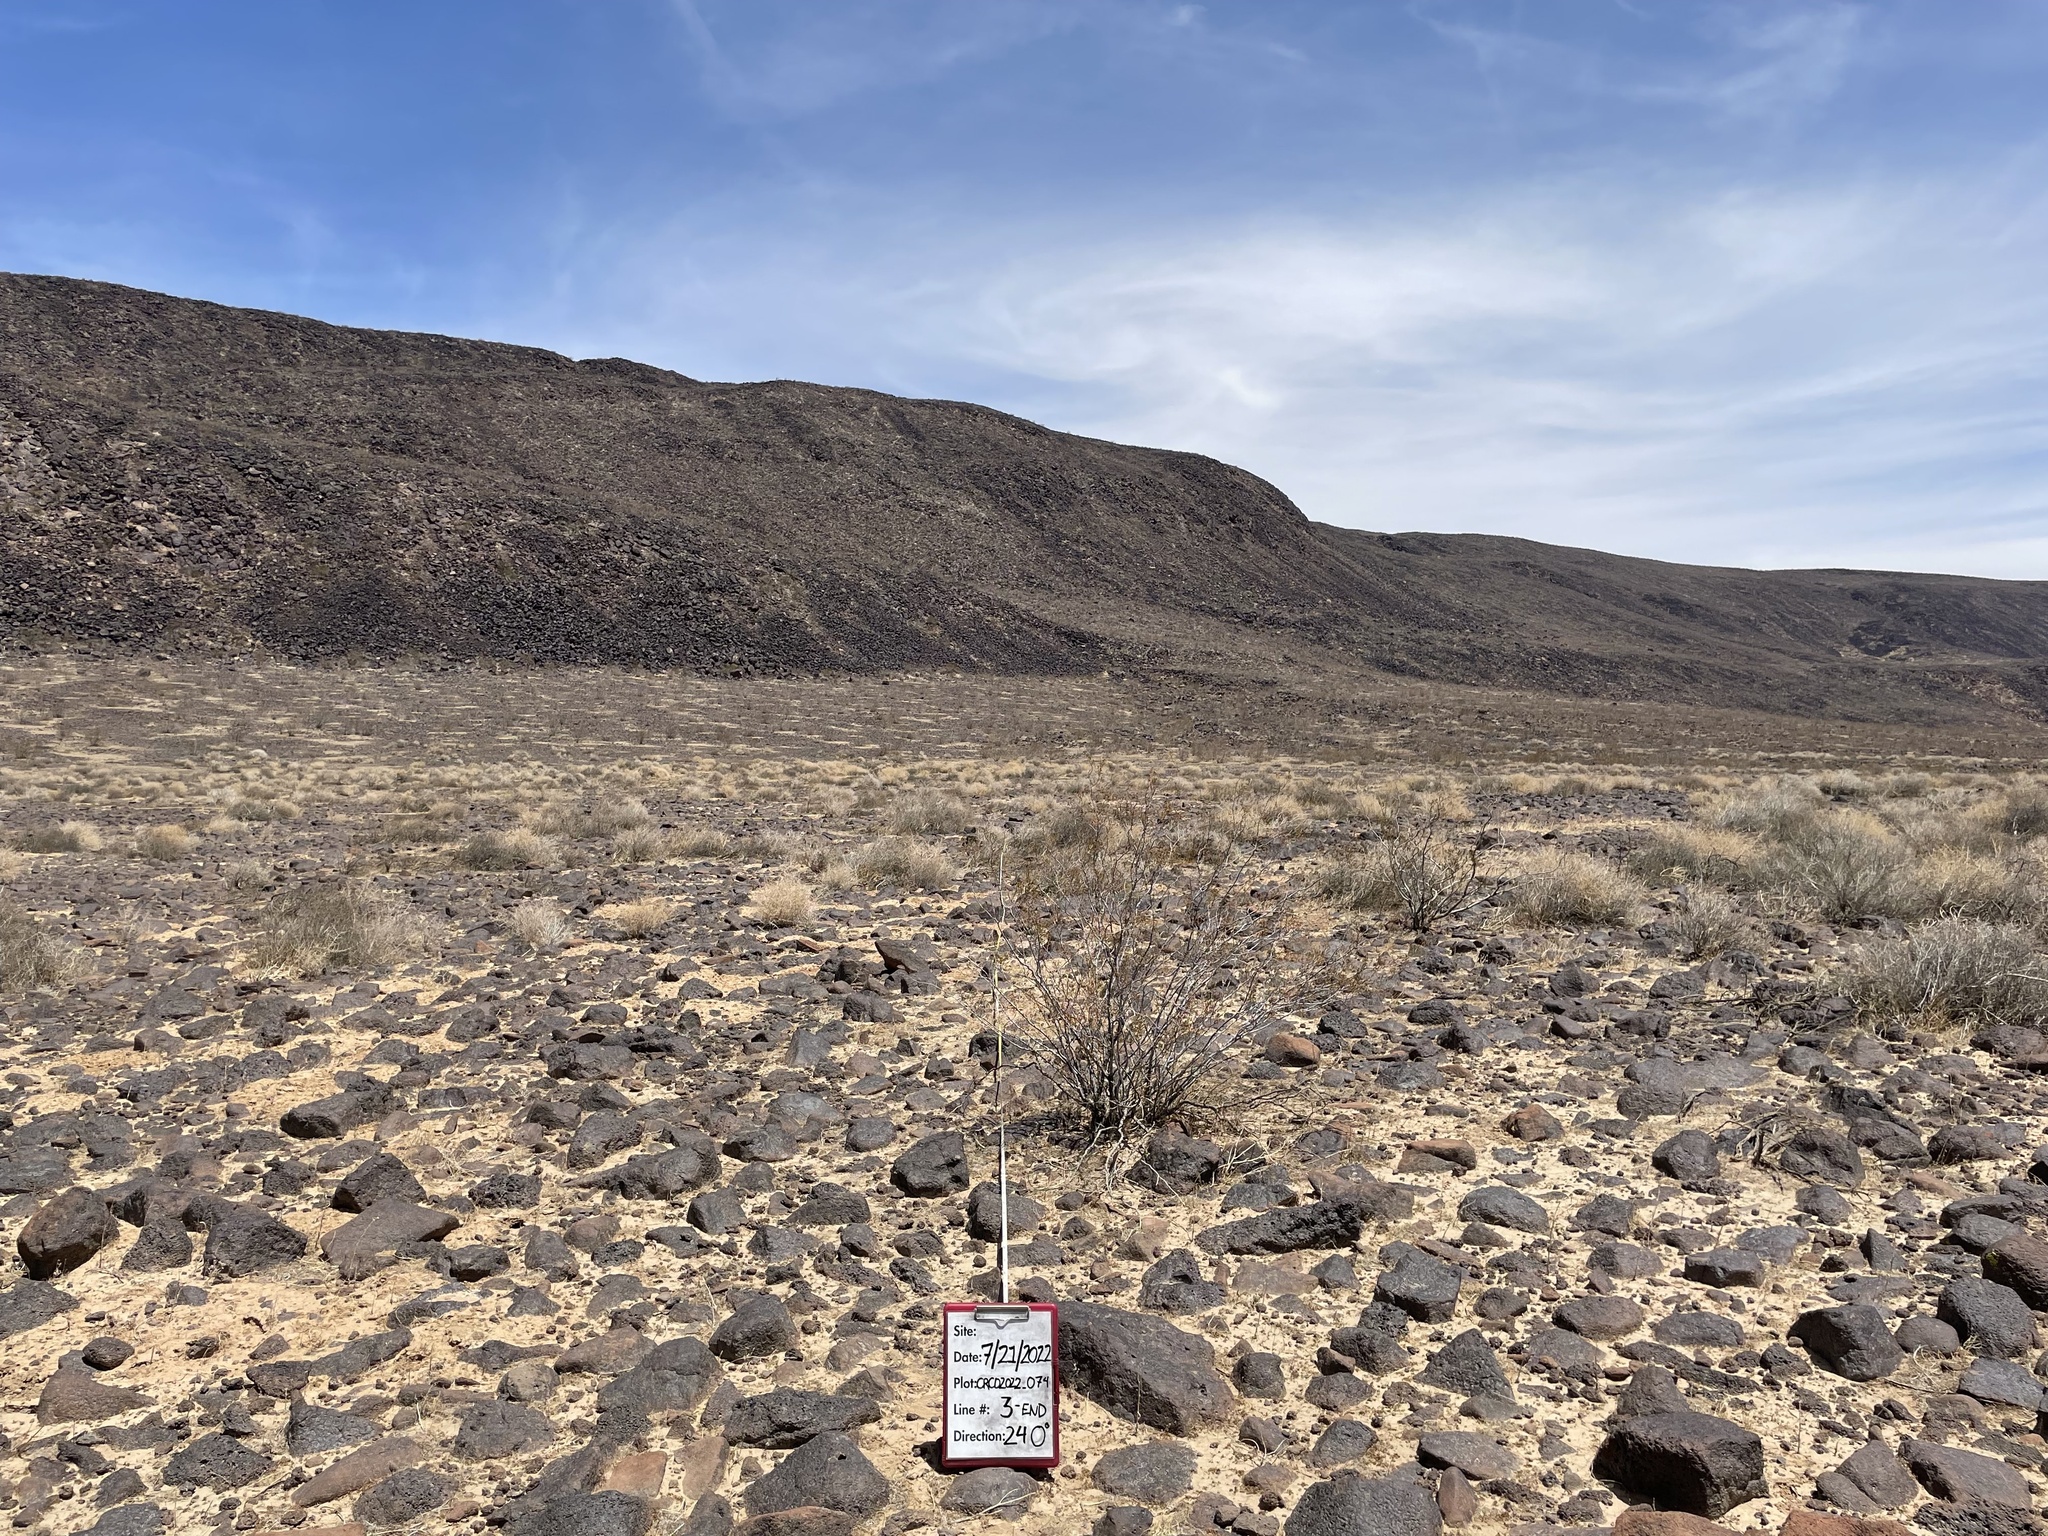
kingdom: Plantae
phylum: Tracheophyta
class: Magnoliopsida
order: Zygophyllales
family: Zygophyllaceae
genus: Larrea
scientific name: Larrea tridentata
